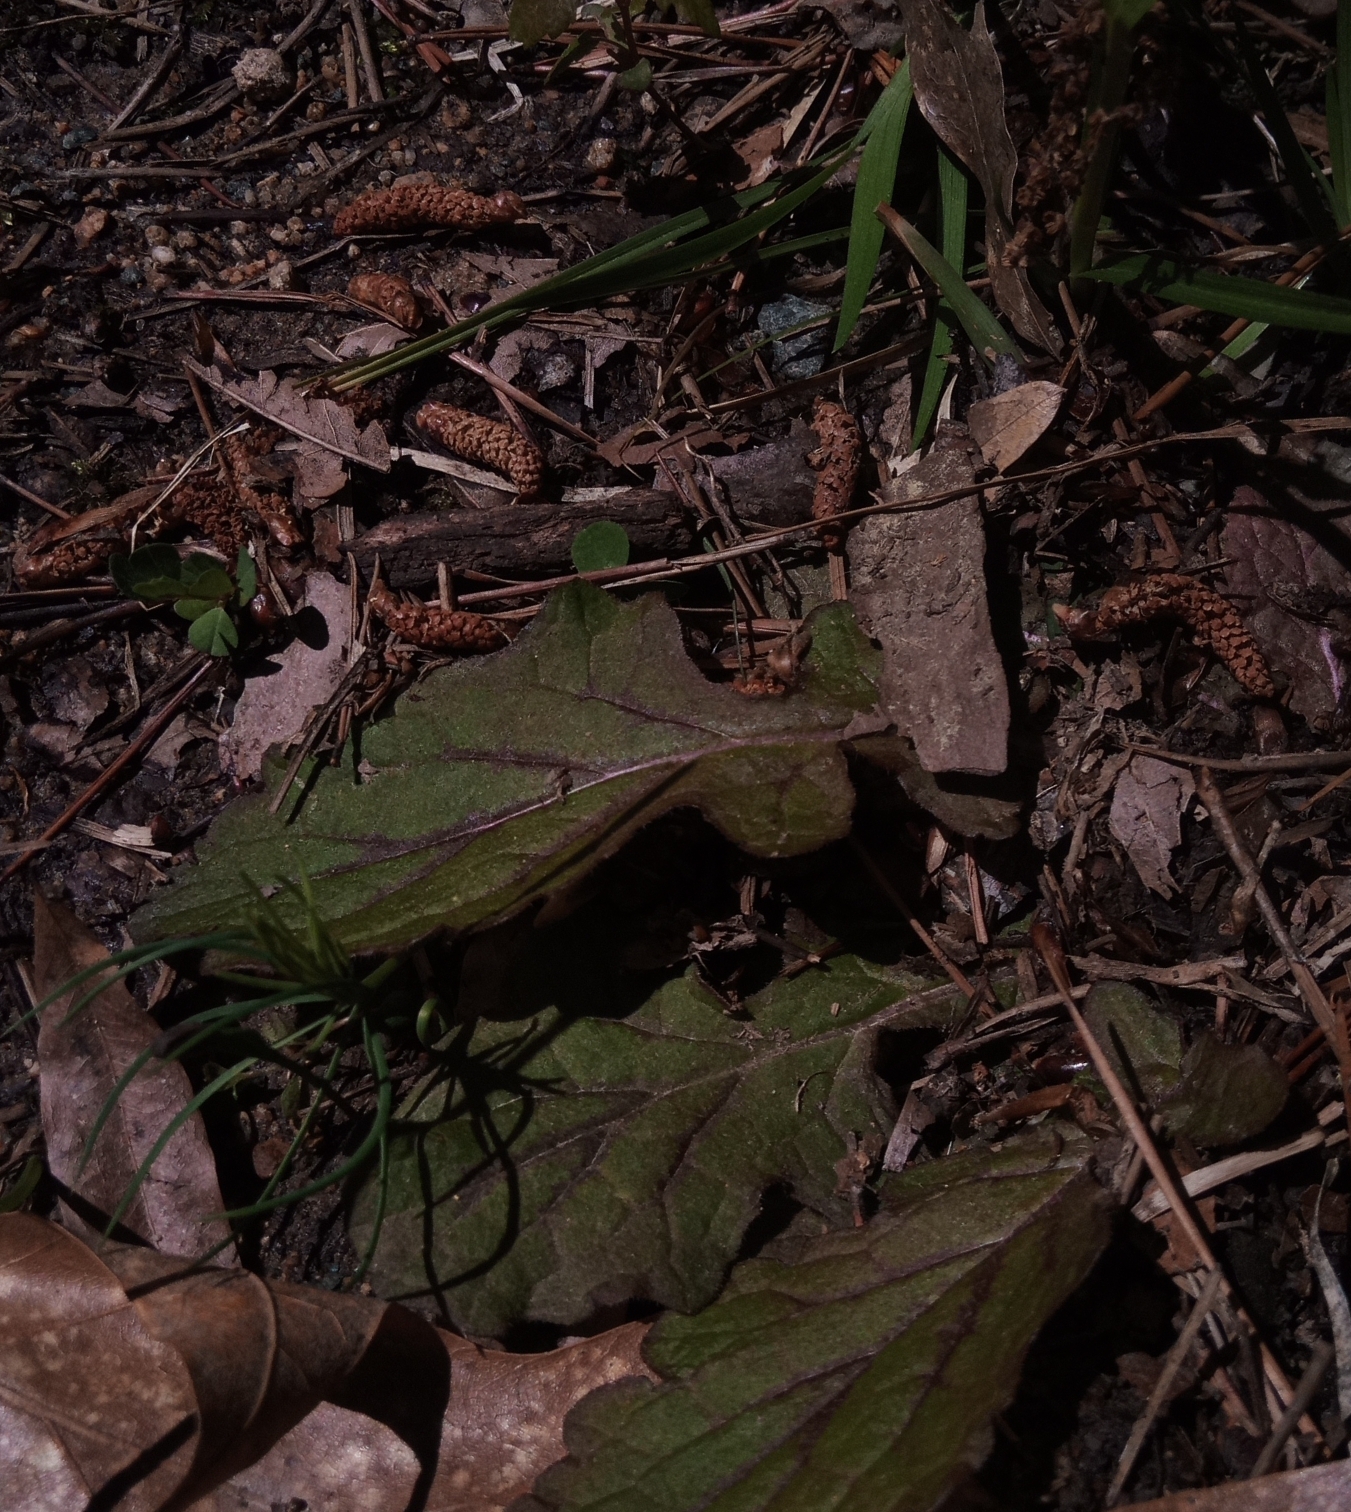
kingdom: Plantae
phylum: Tracheophyta
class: Magnoliopsida
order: Lamiales
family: Lamiaceae
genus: Salvia
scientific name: Salvia lyrata
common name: Cancerweed
